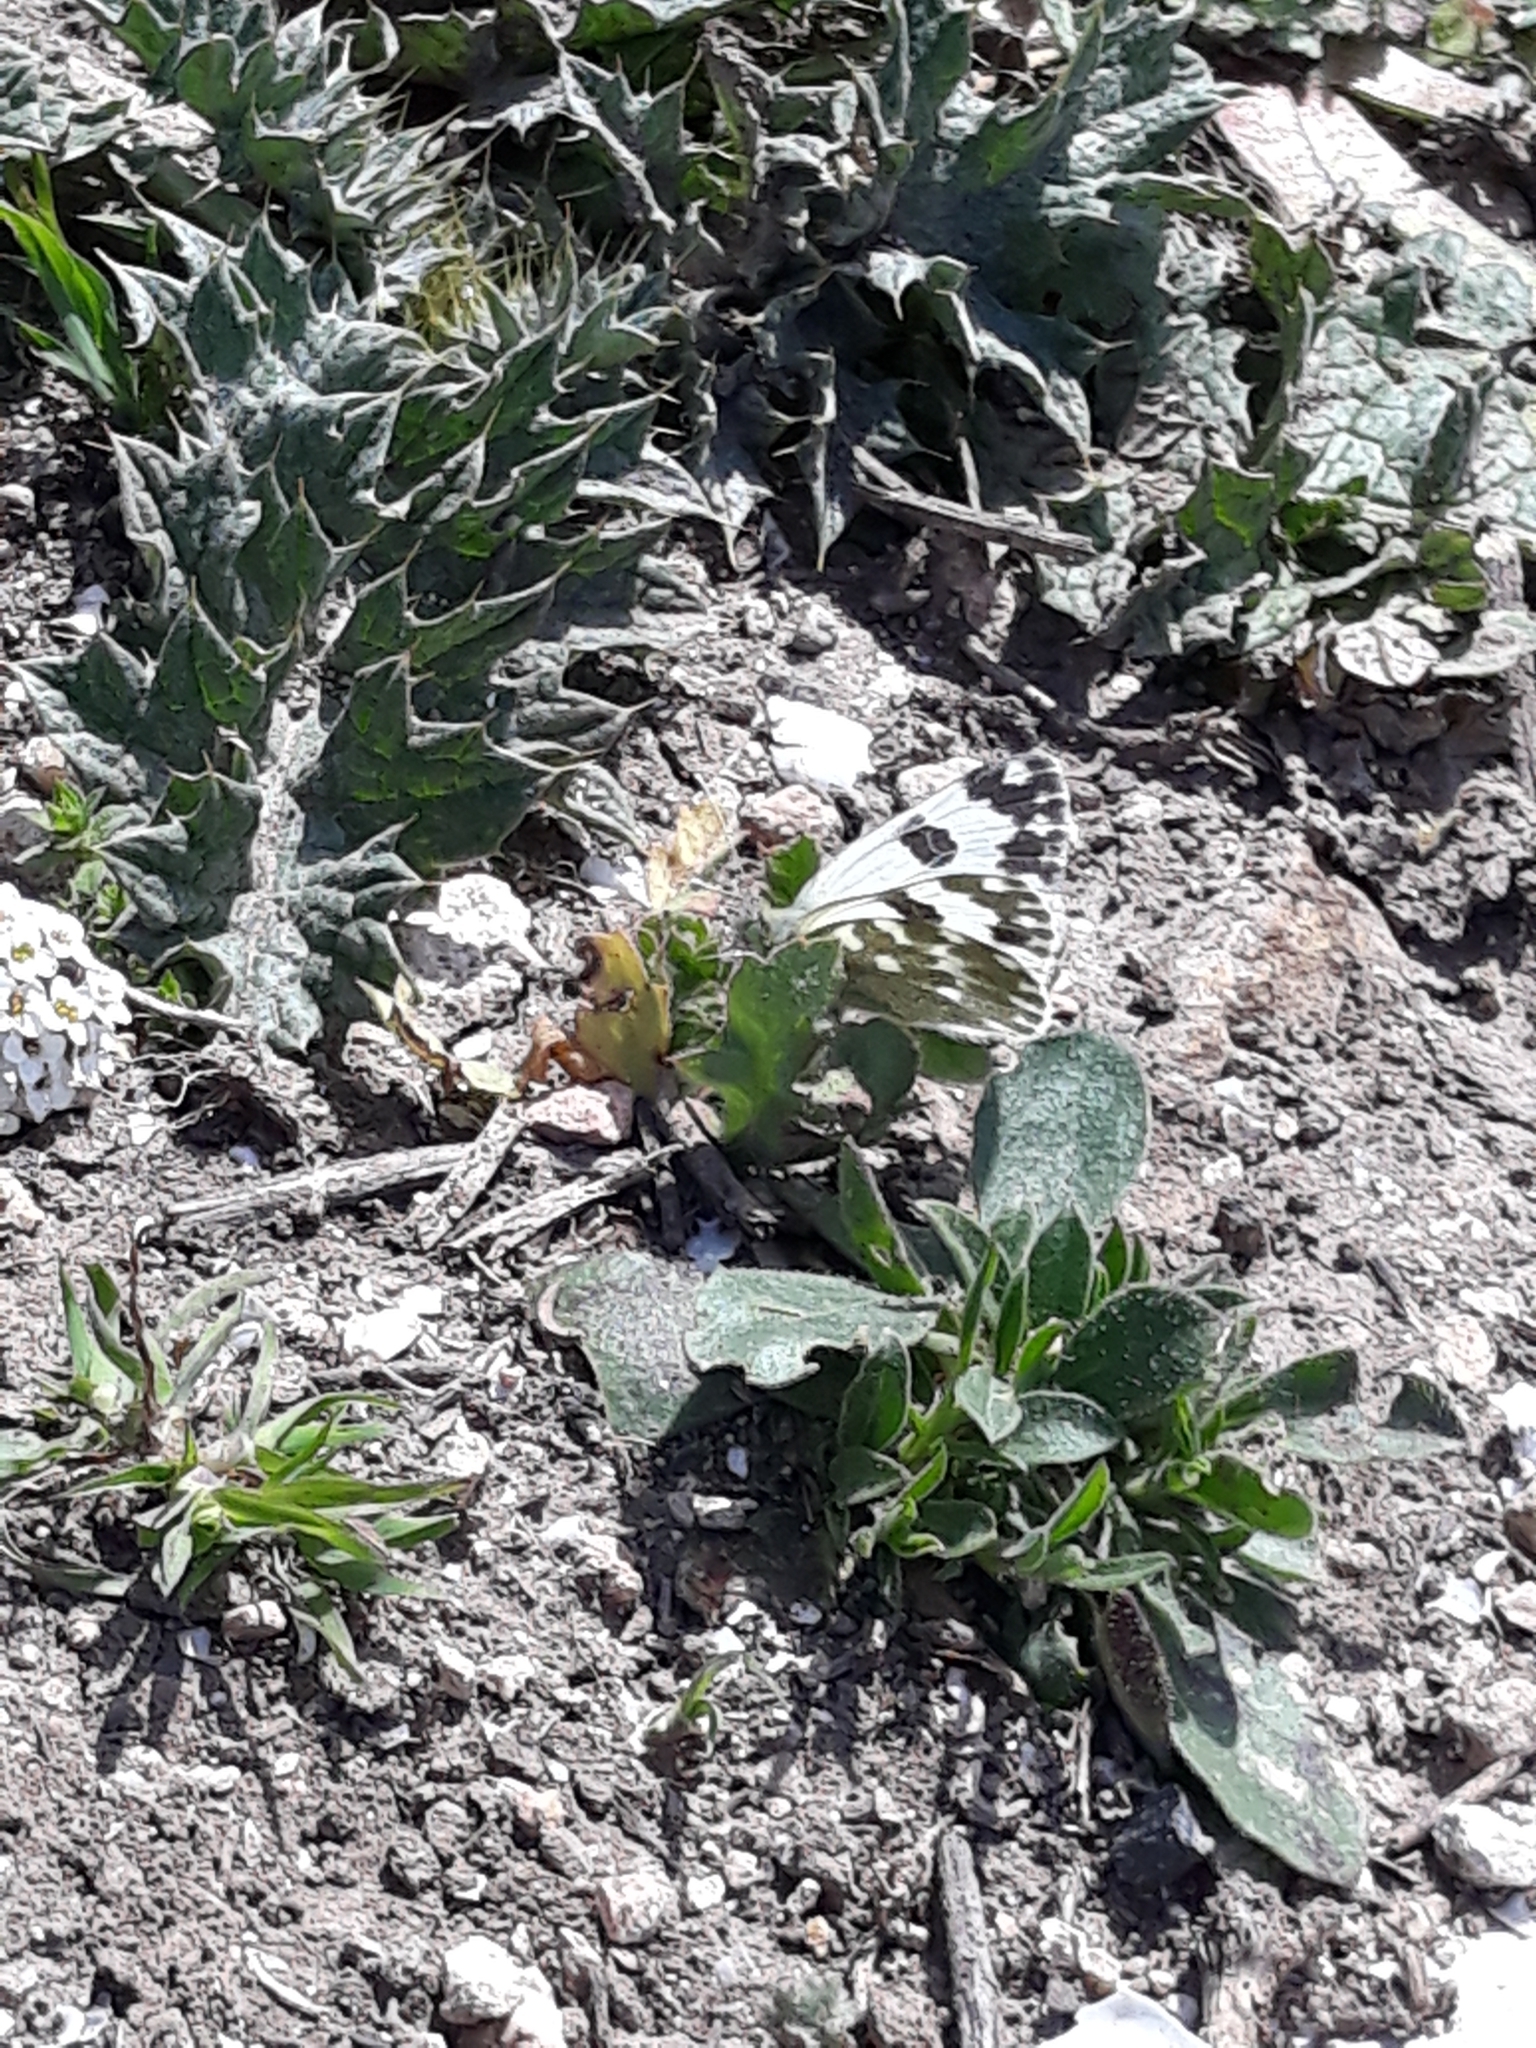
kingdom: Animalia
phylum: Arthropoda
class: Insecta
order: Lepidoptera
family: Pieridae
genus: Pontia
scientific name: Pontia daplidice
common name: Bath white
